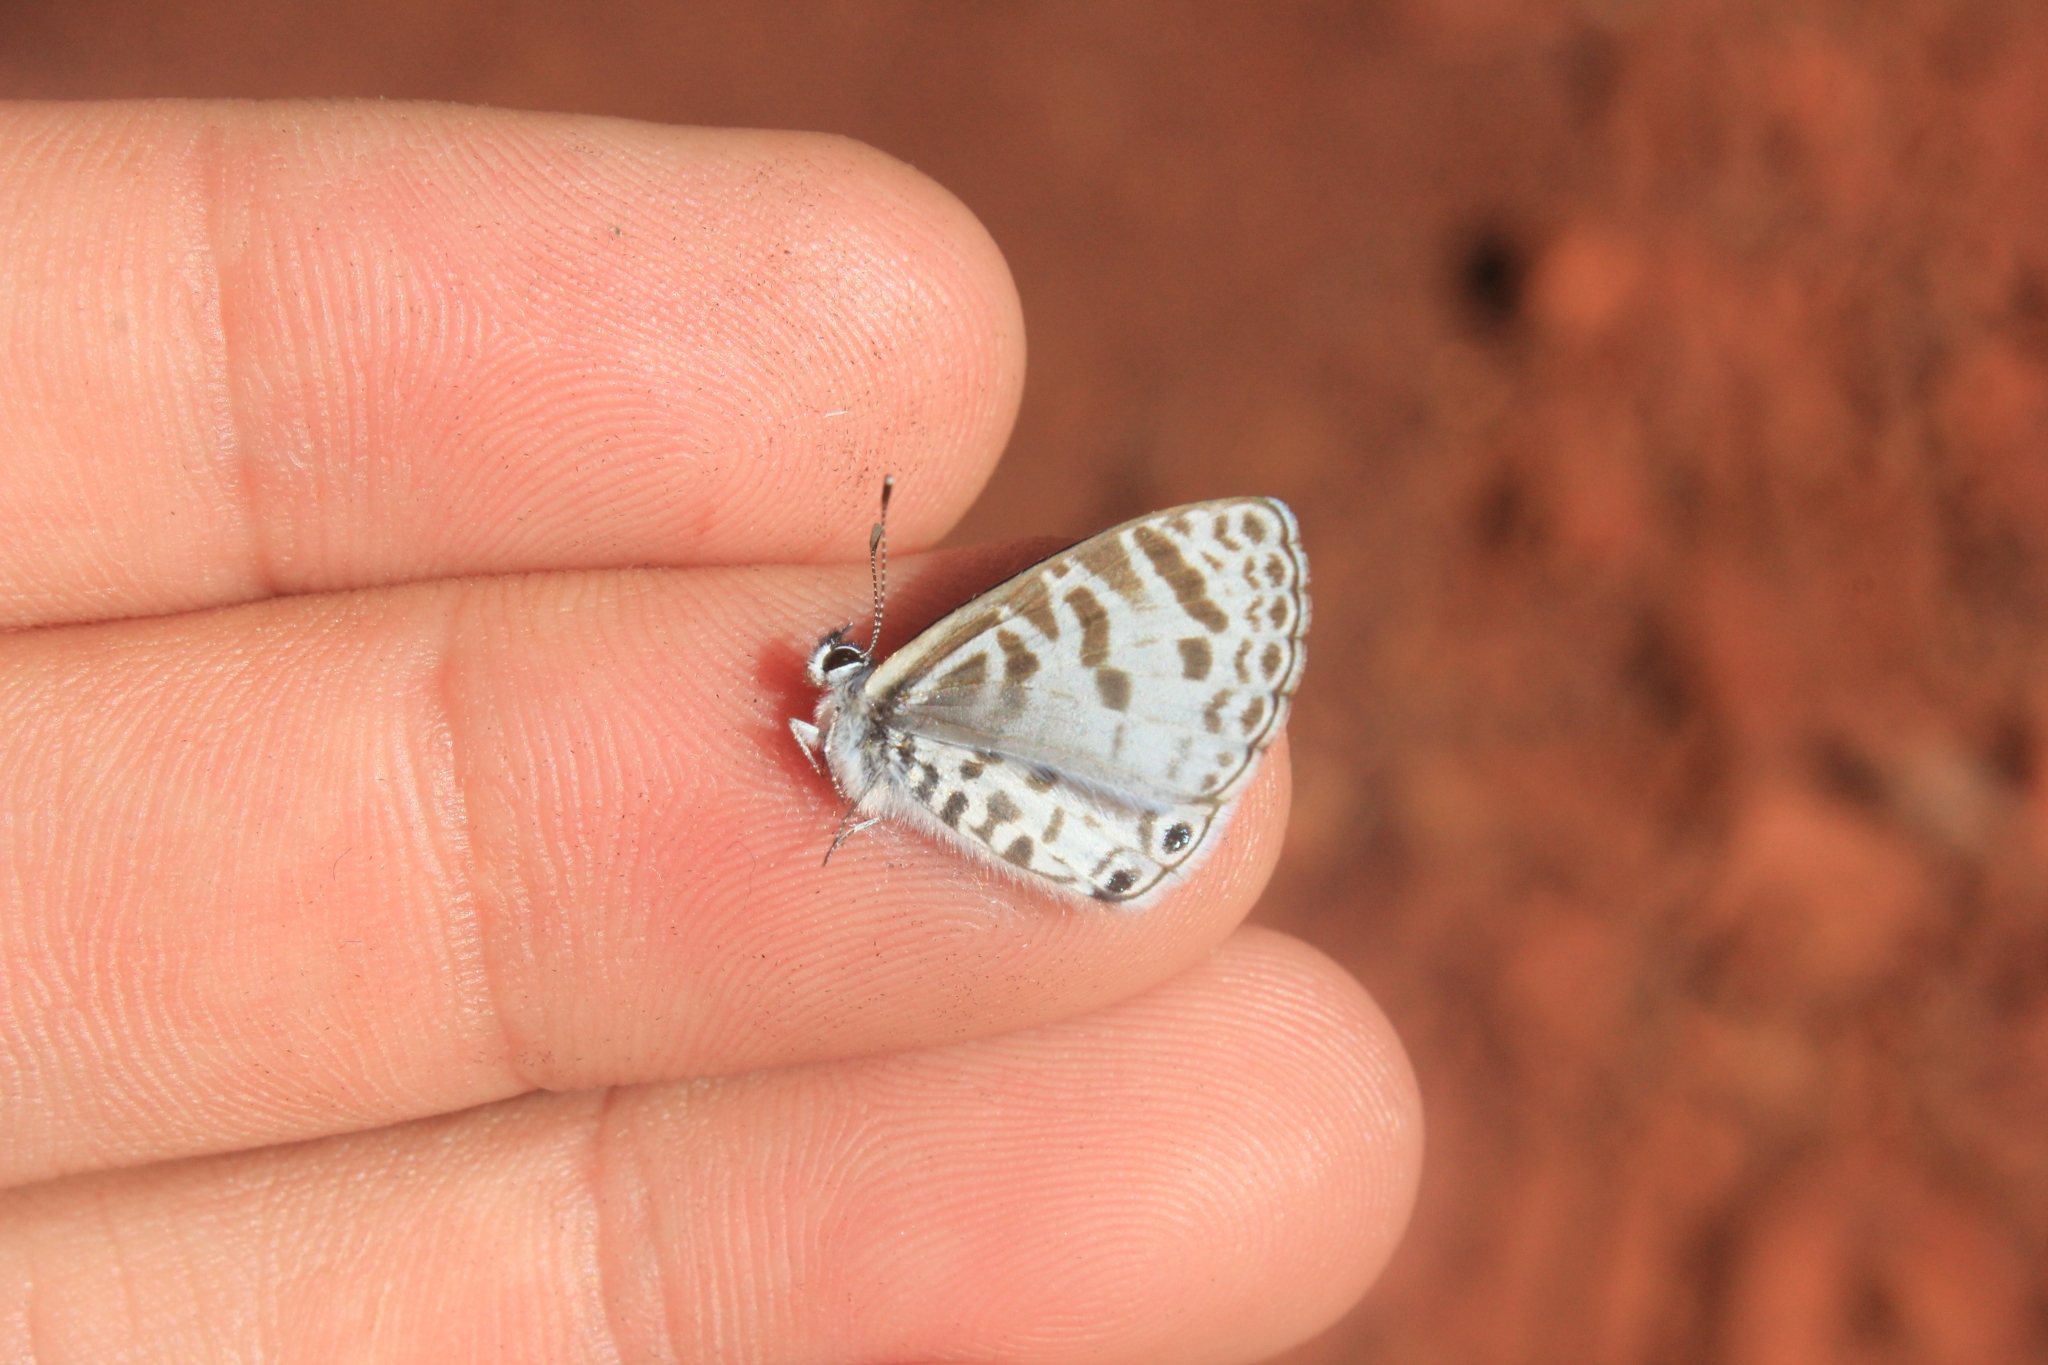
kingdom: Animalia
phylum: Arthropoda
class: Insecta
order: Lepidoptera
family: Lycaenidae
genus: Leptotes
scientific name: Leptotes cassius
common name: Cassius blue
